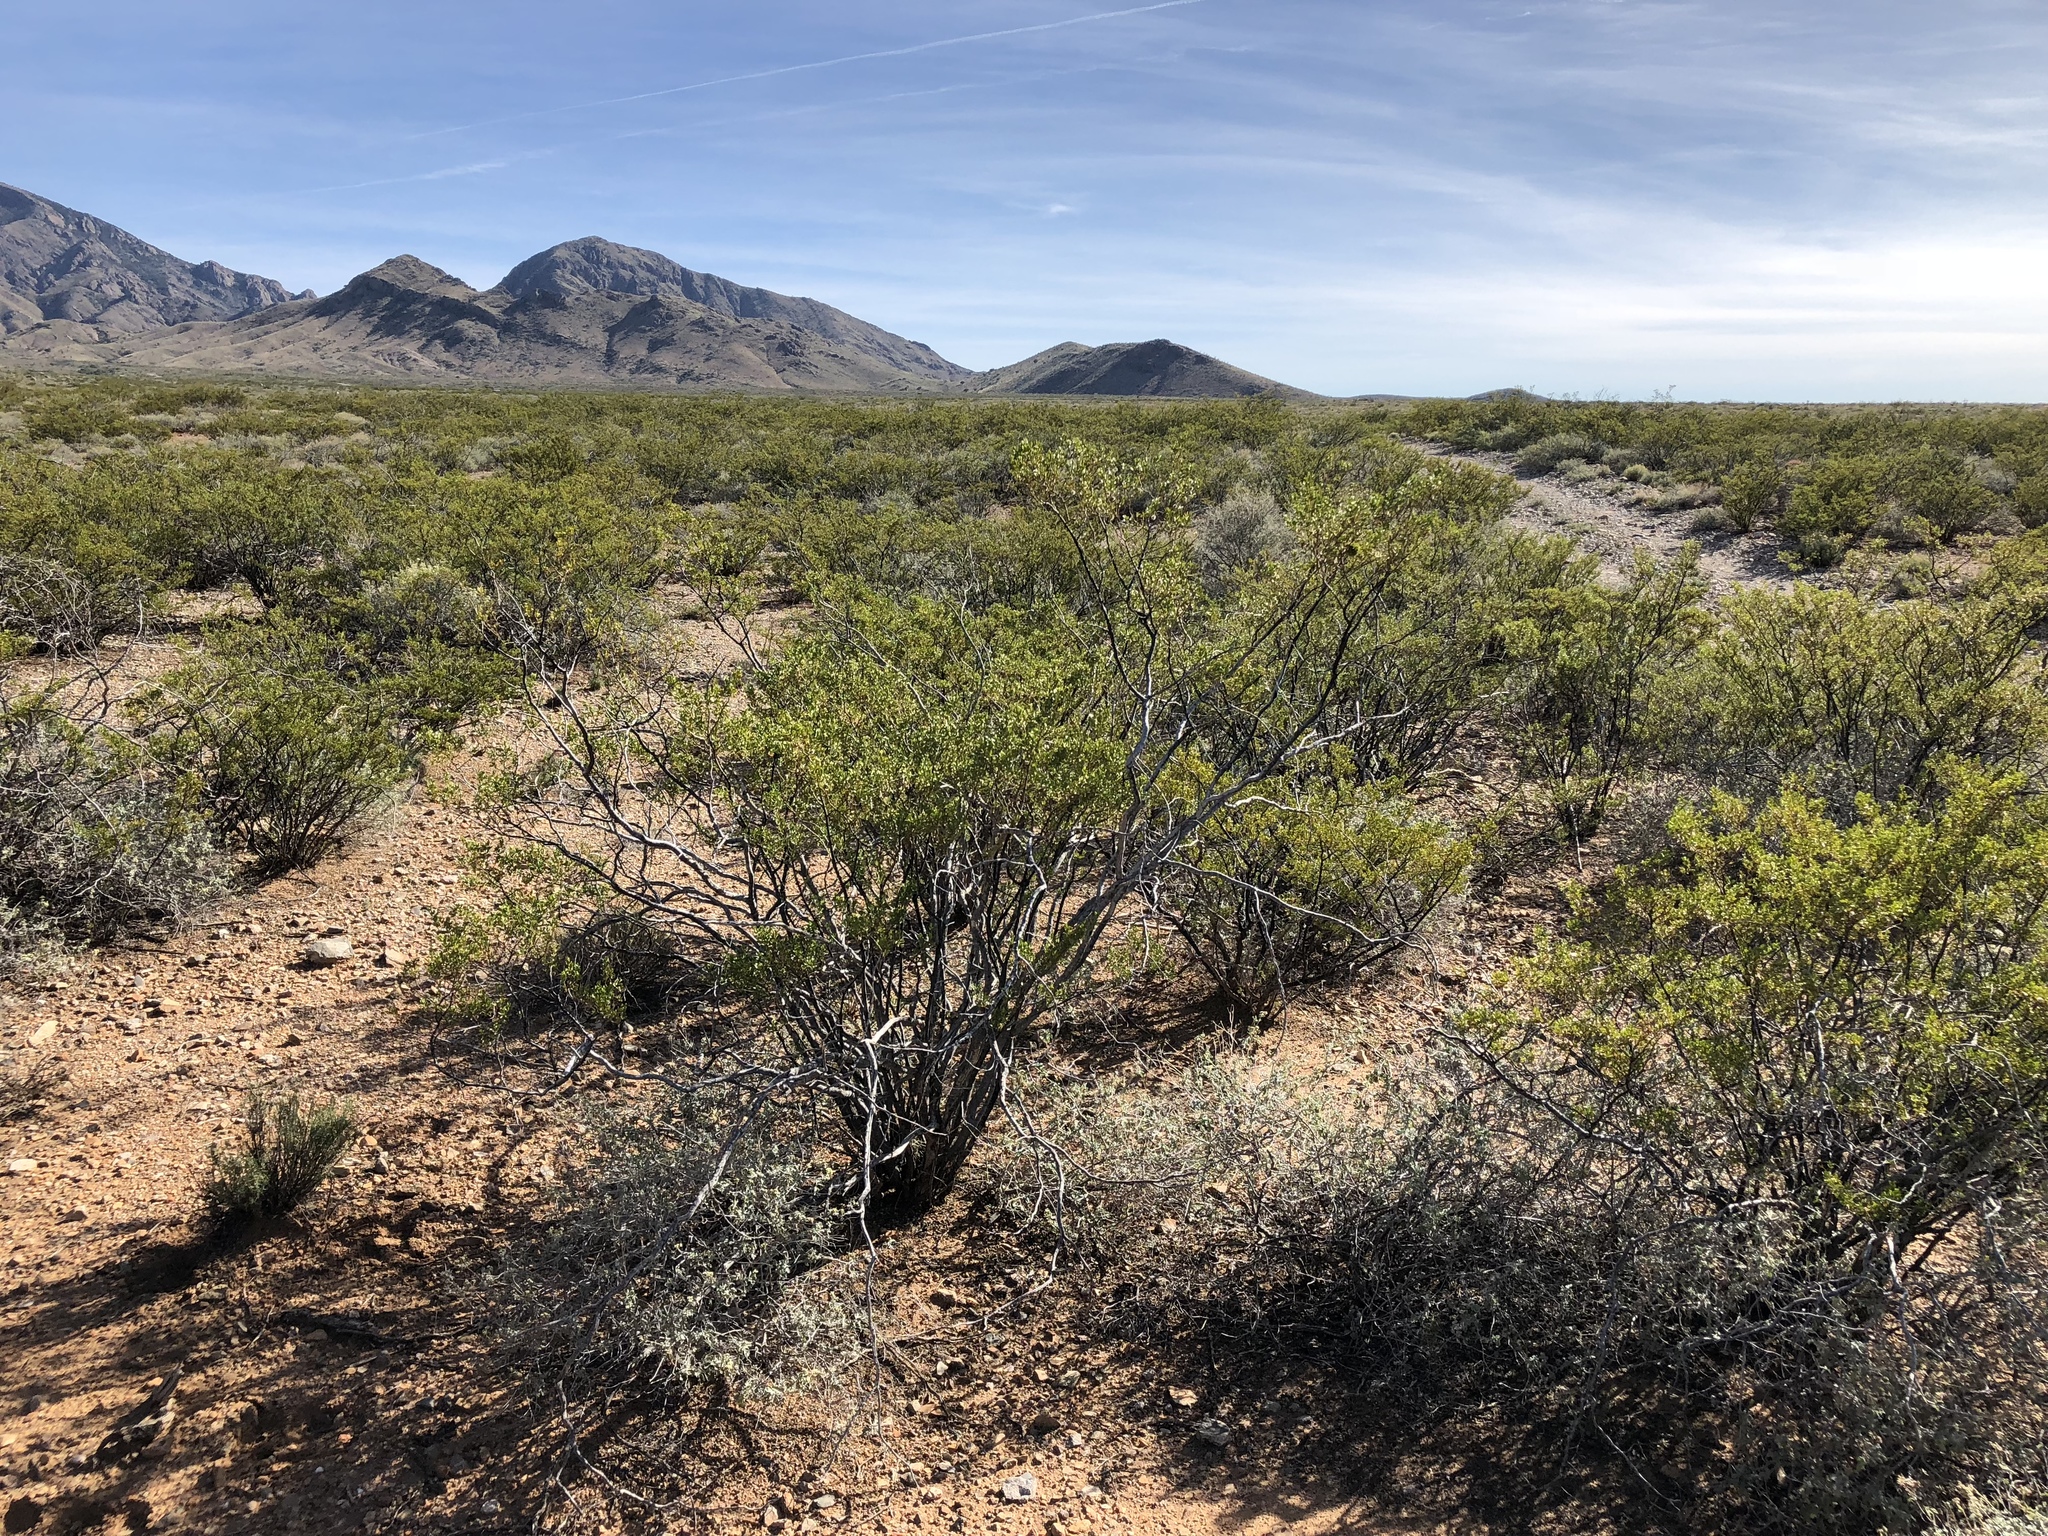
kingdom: Plantae
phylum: Tracheophyta
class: Magnoliopsida
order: Zygophyllales
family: Zygophyllaceae
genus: Larrea
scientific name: Larrea tridentata
